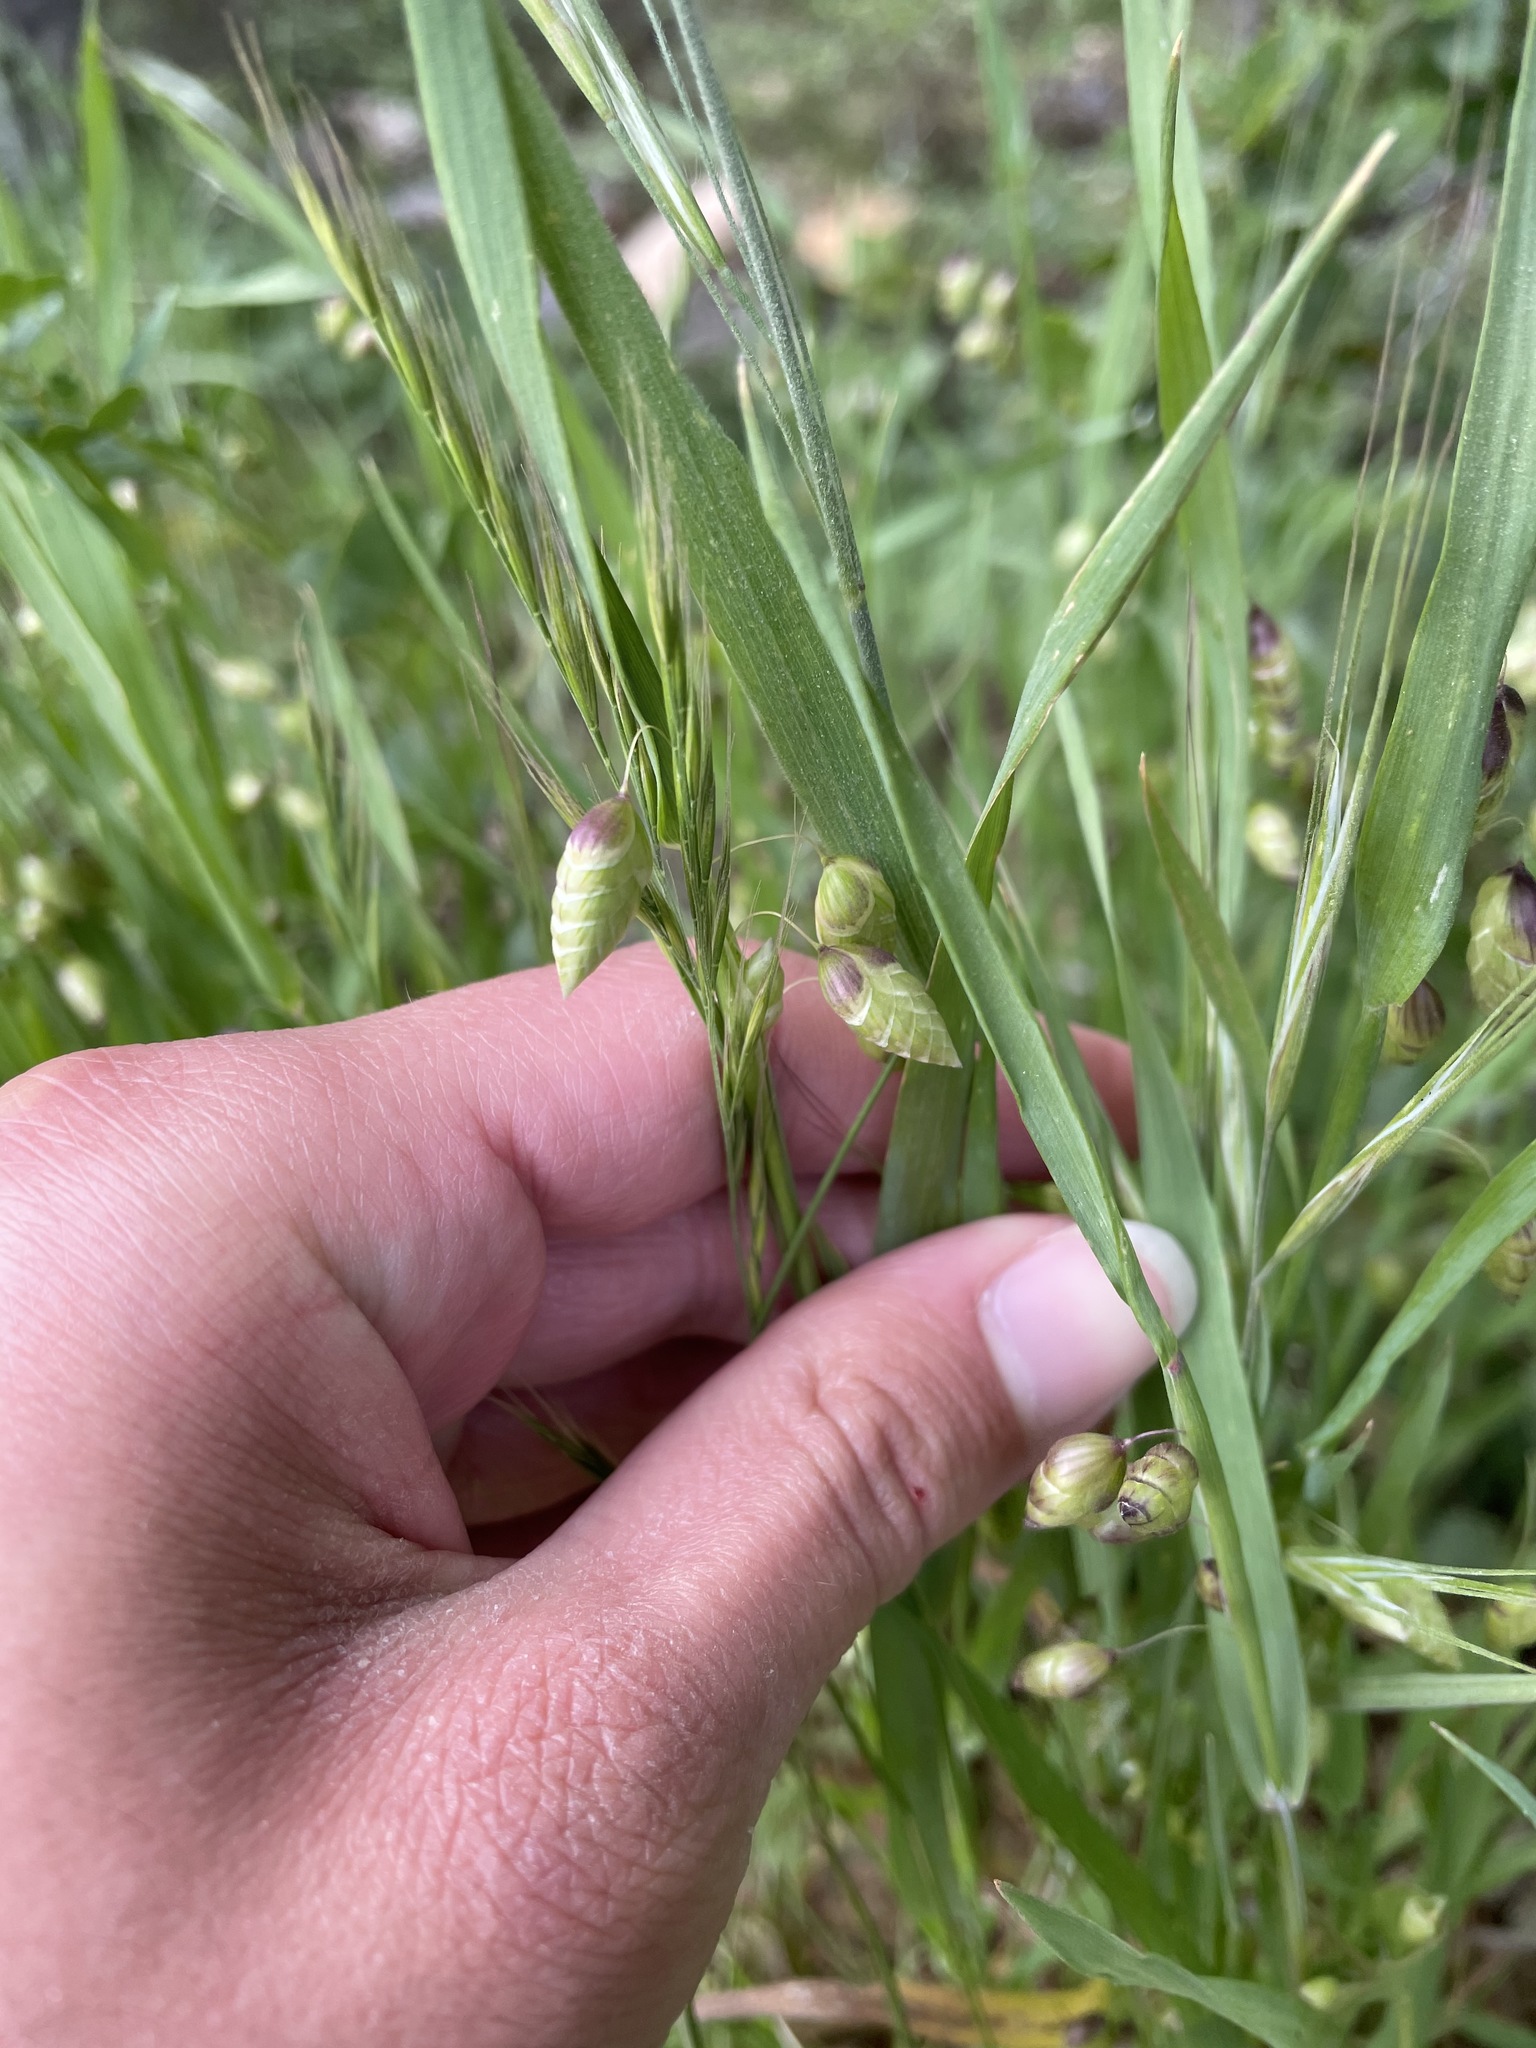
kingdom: Plantae
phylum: Tracheophyta
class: Liliopsida
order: Poales
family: Poaceae
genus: Briza
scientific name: Briza maxima
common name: Big quakinggrass
